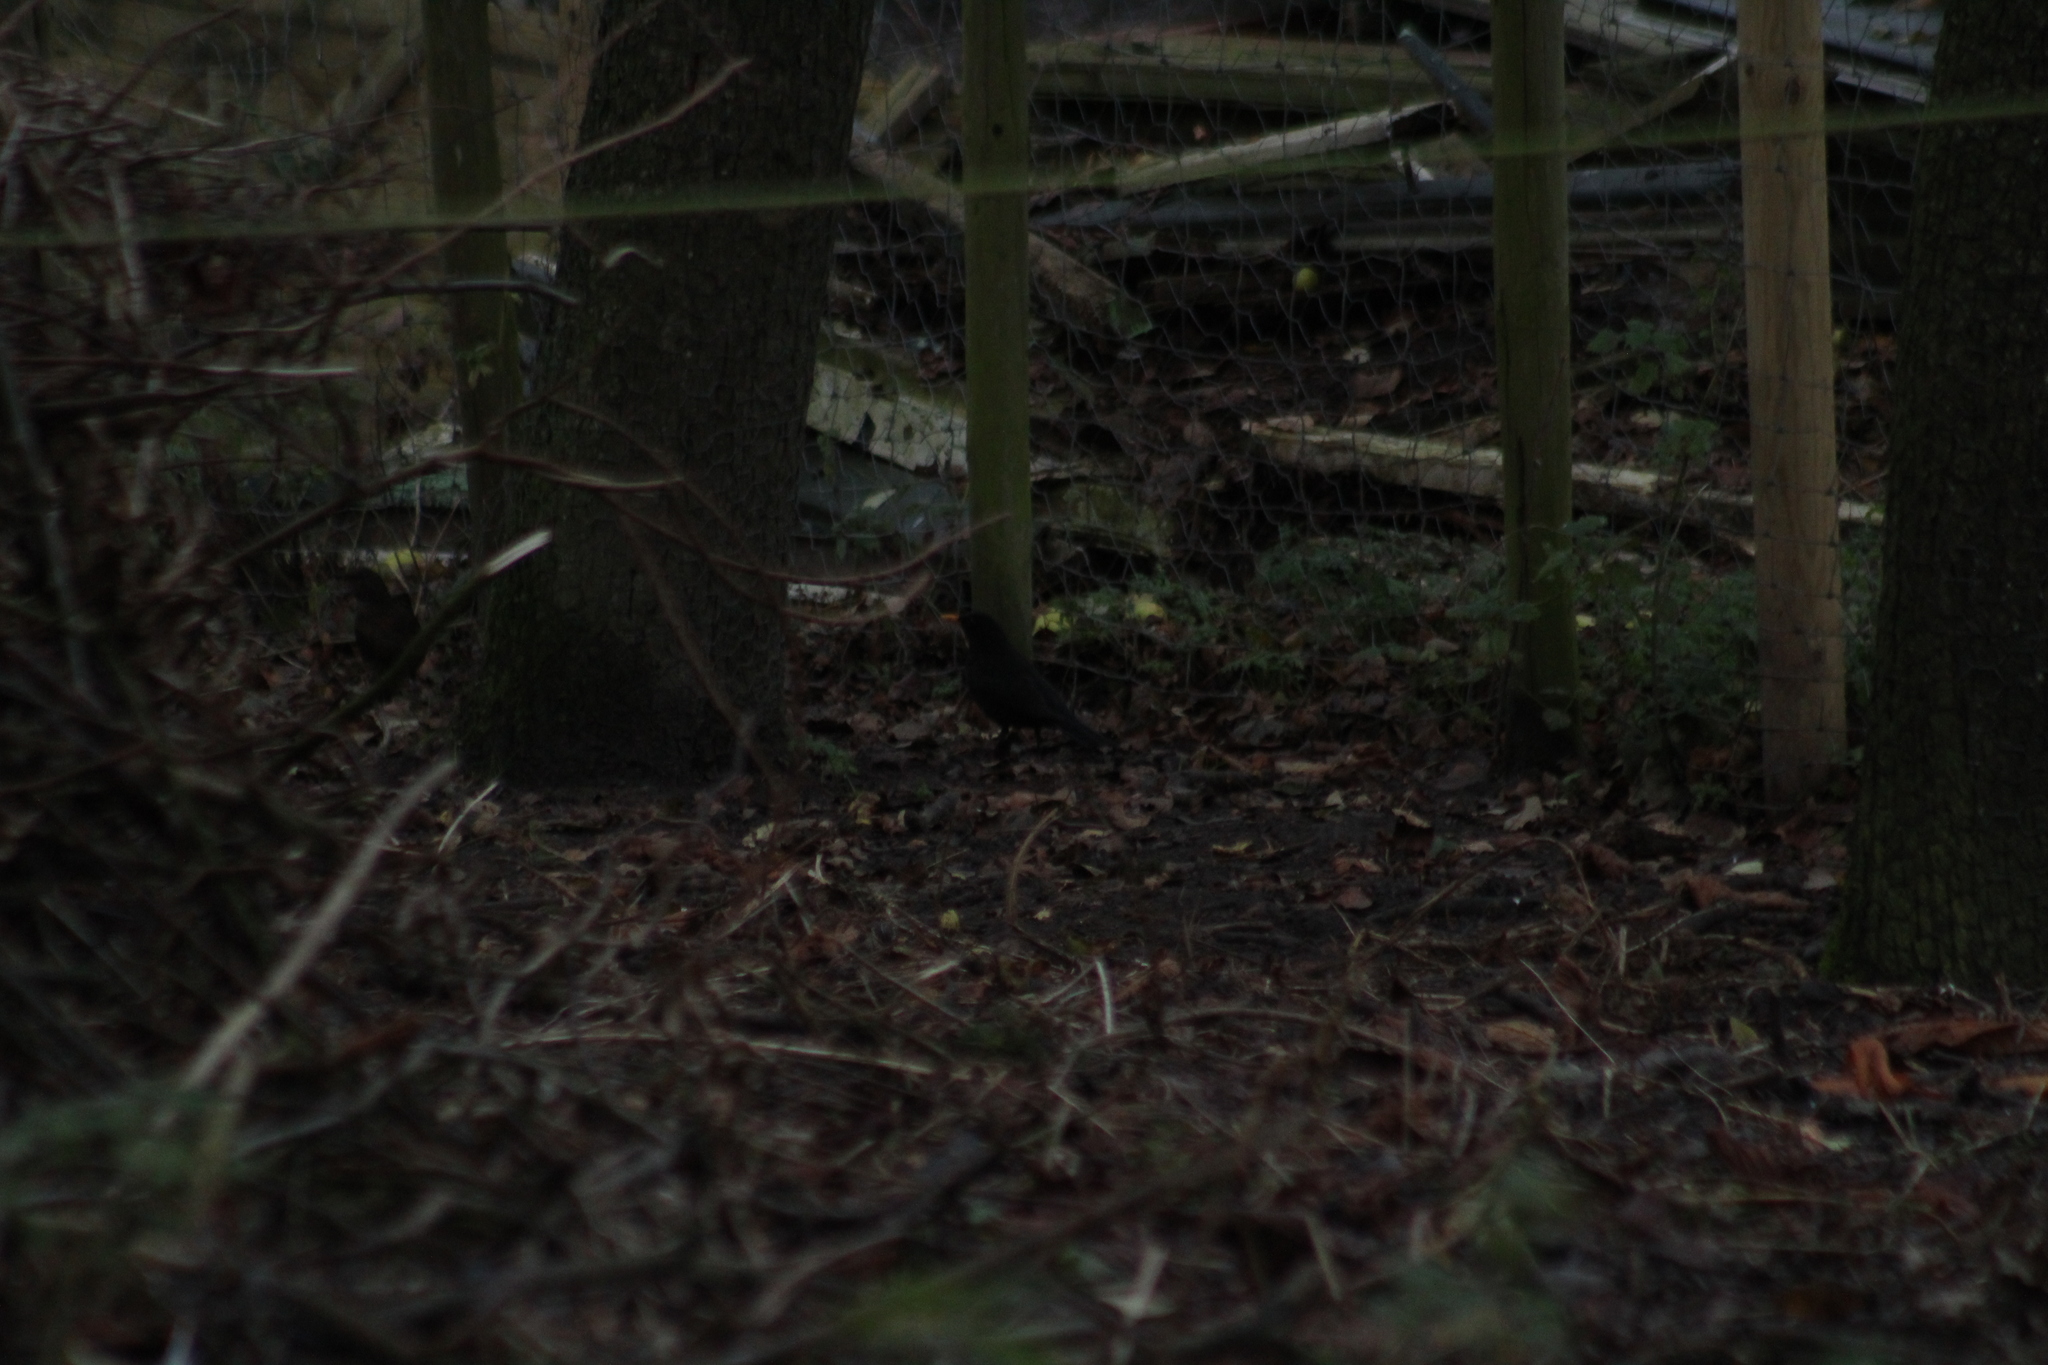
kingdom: Animalia
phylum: Chordata
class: Aves
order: Passeriformes
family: Turdidae
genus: Turdus
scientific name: Turdus merula
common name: Common blackbird
